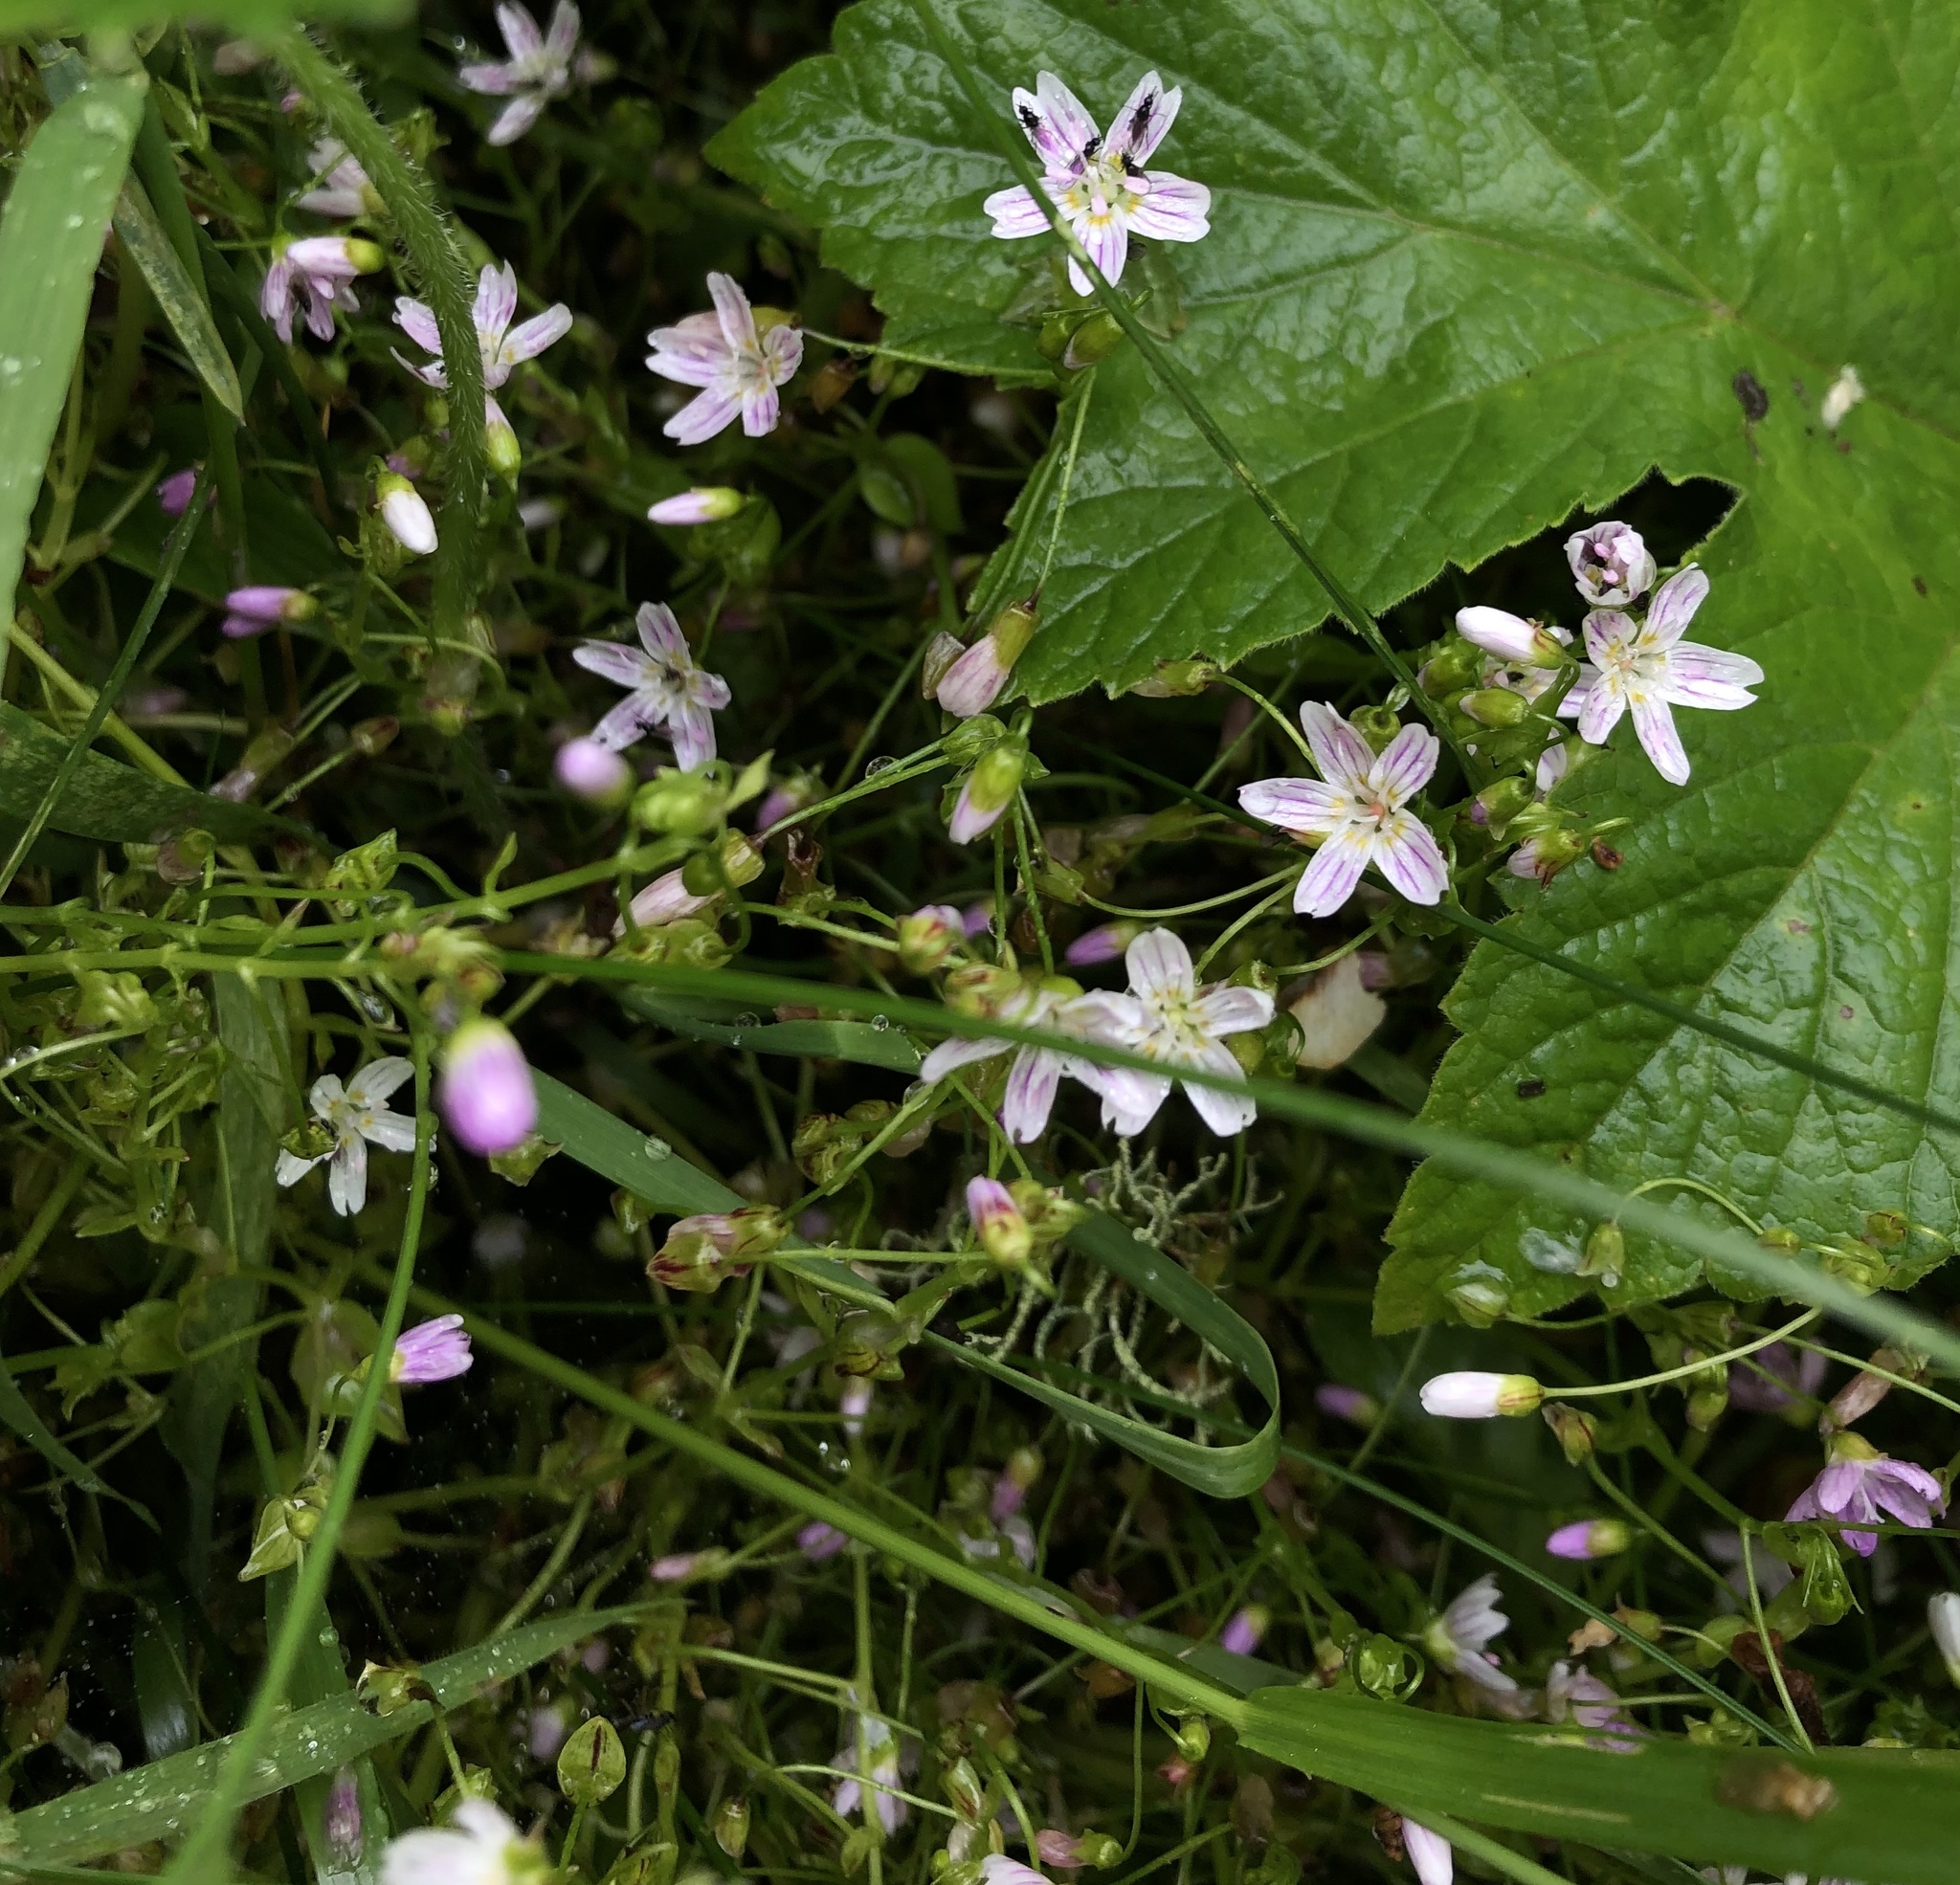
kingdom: Plantae
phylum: Tracheophyta
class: Magnoliopsida
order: Caryophyllales
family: Montiaceae
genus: Claytonia
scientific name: Claytonia sibirica
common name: Pink purslane
